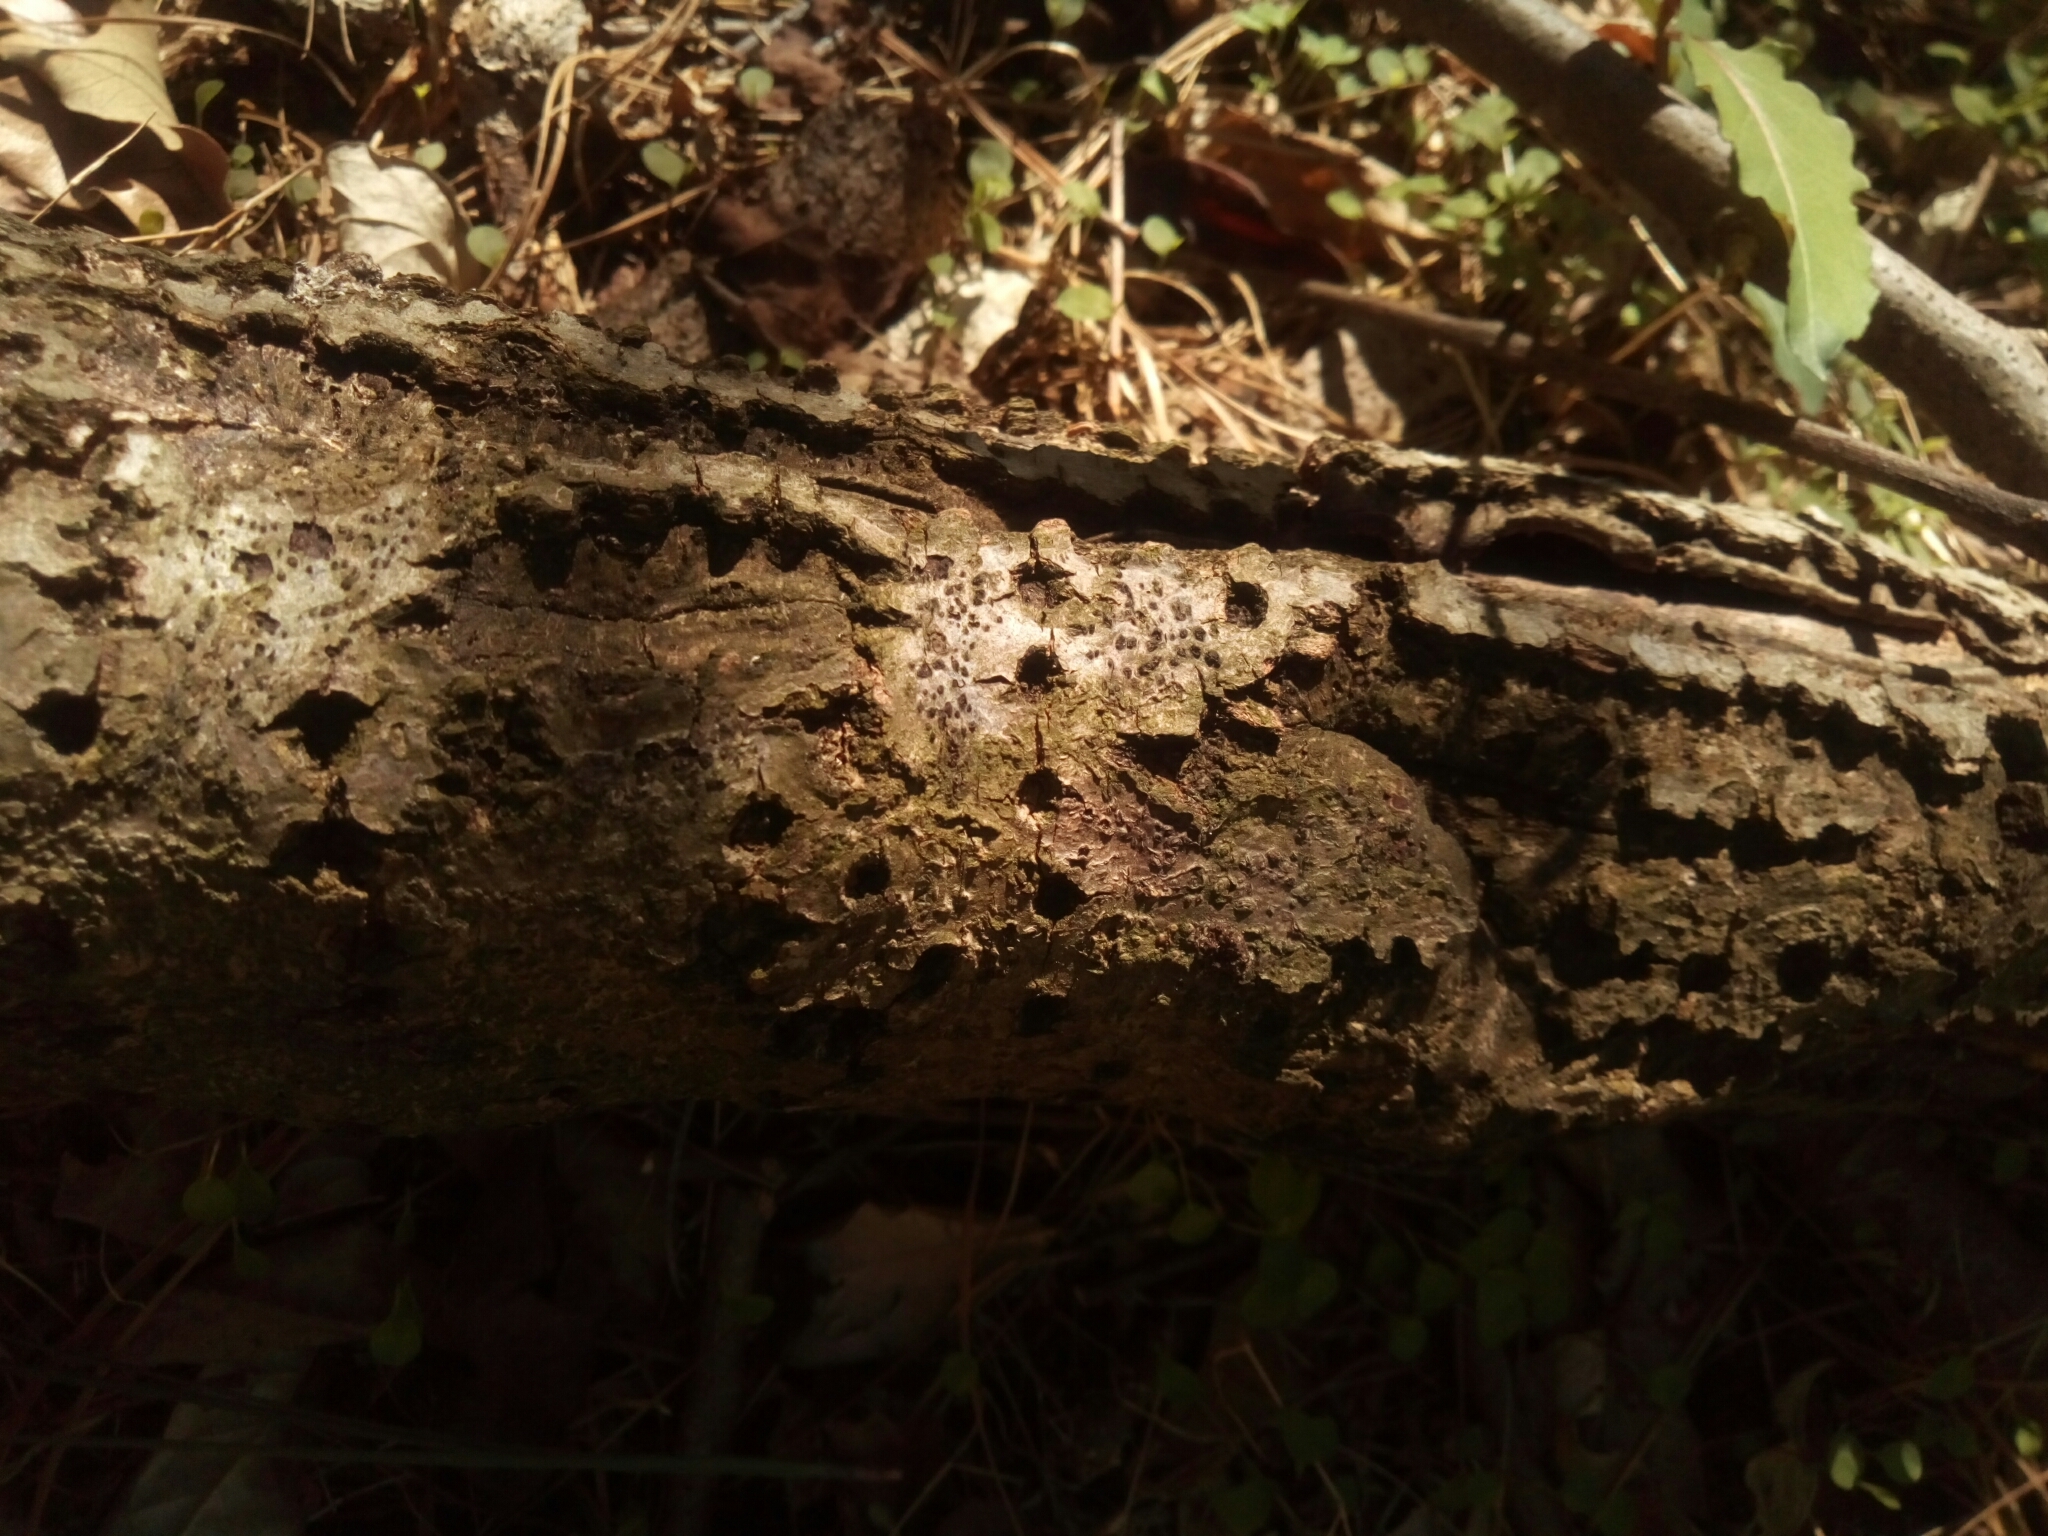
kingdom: Animalia
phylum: Chordata
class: Aves
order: Piciformes
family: Picidae
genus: Sphyrapicus
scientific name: Sphyrapicus varius
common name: Yellow-bellied sapsucker
